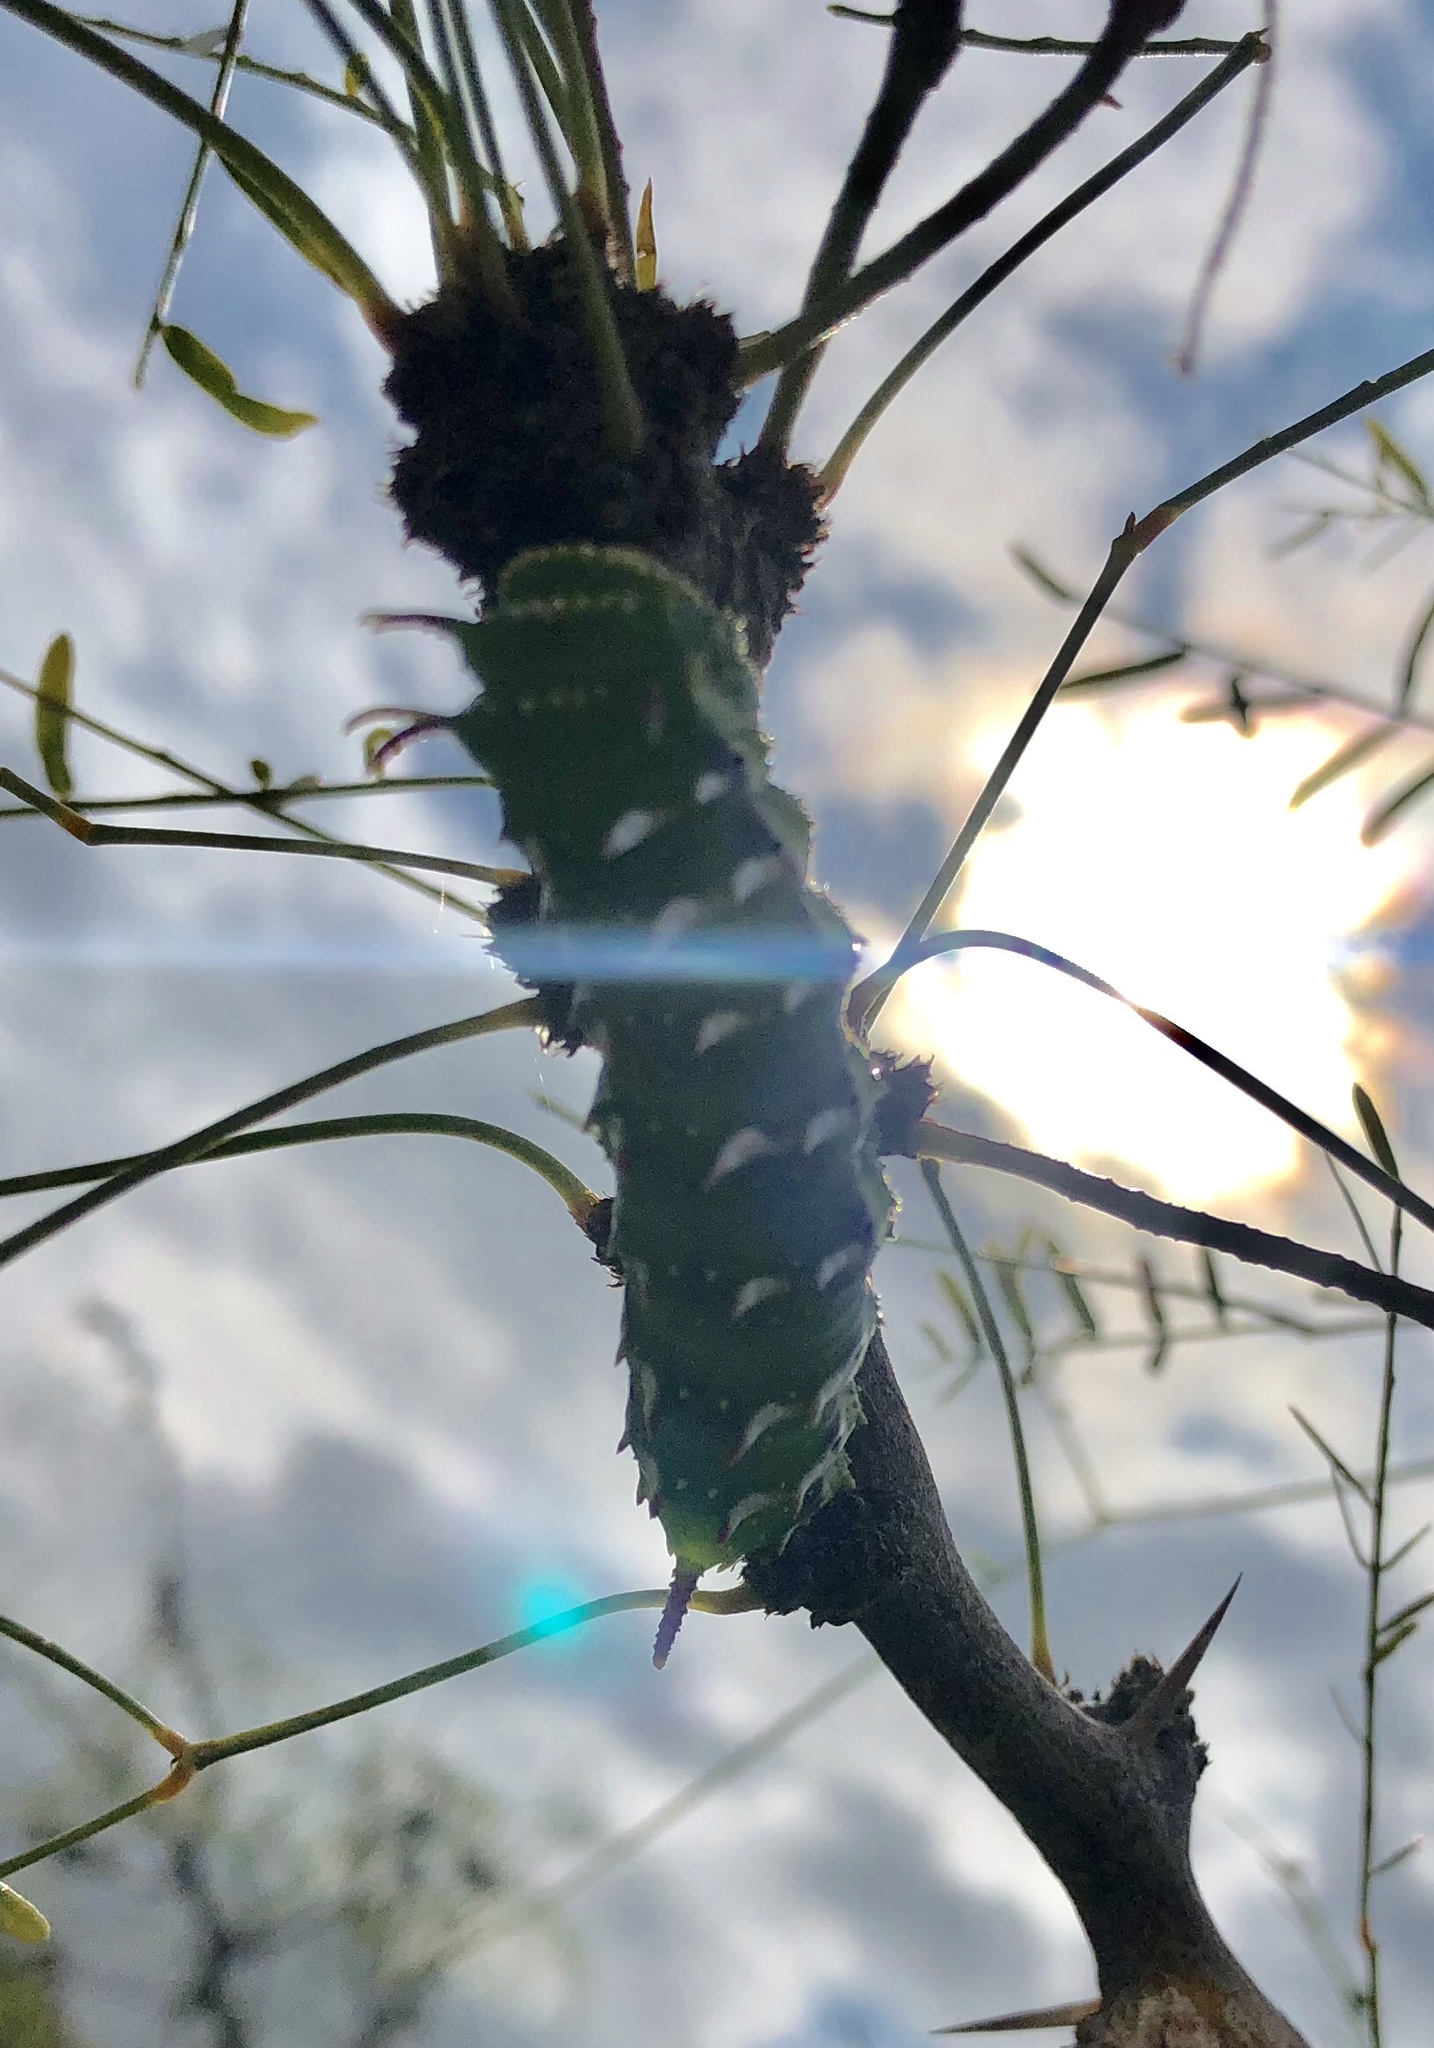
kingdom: Animalia
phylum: Arthropoda
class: Insecta
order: Lepidoptera
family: Saturniidae
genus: Syssphinx
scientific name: Syssphinx hubbardi
